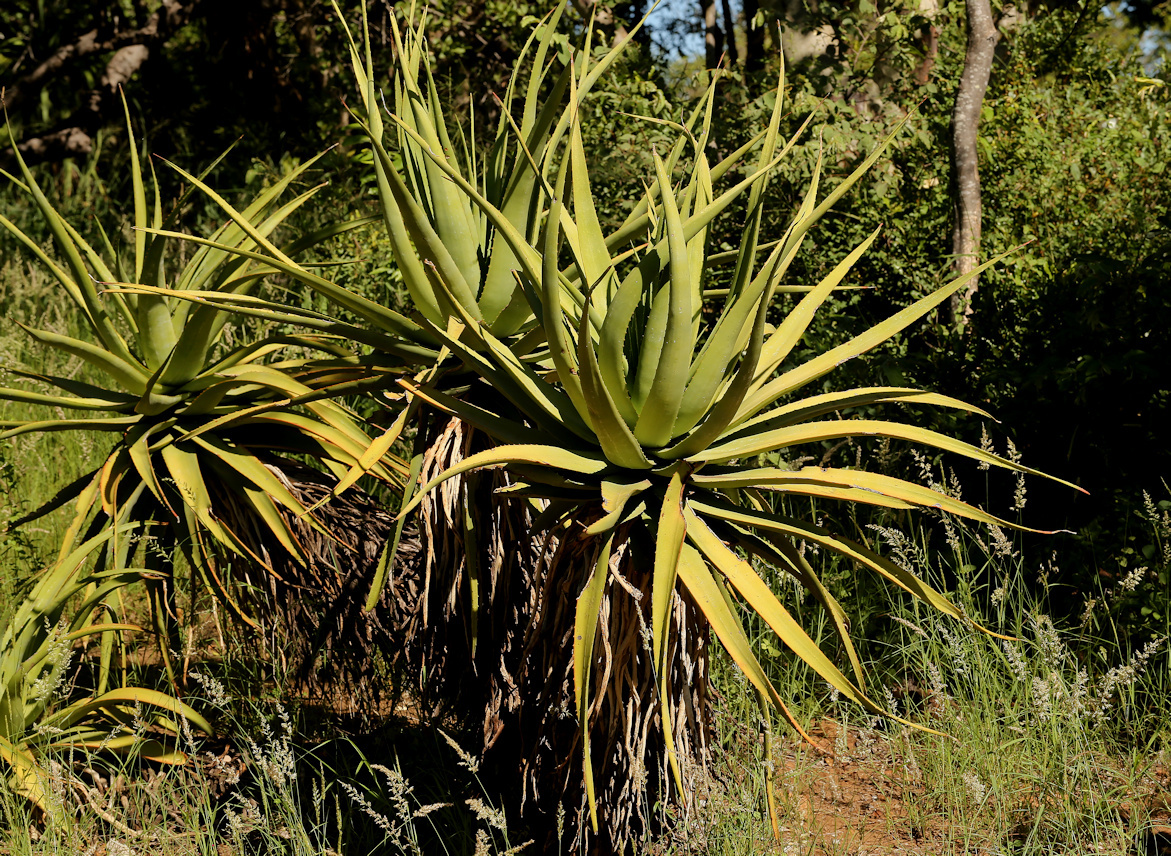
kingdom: Plantae
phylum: Tracheophyta
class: Liliopsida
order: Asparagales
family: Asphodelaceae
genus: Aloe
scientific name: Aloe spicata
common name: Gazaland aloe
